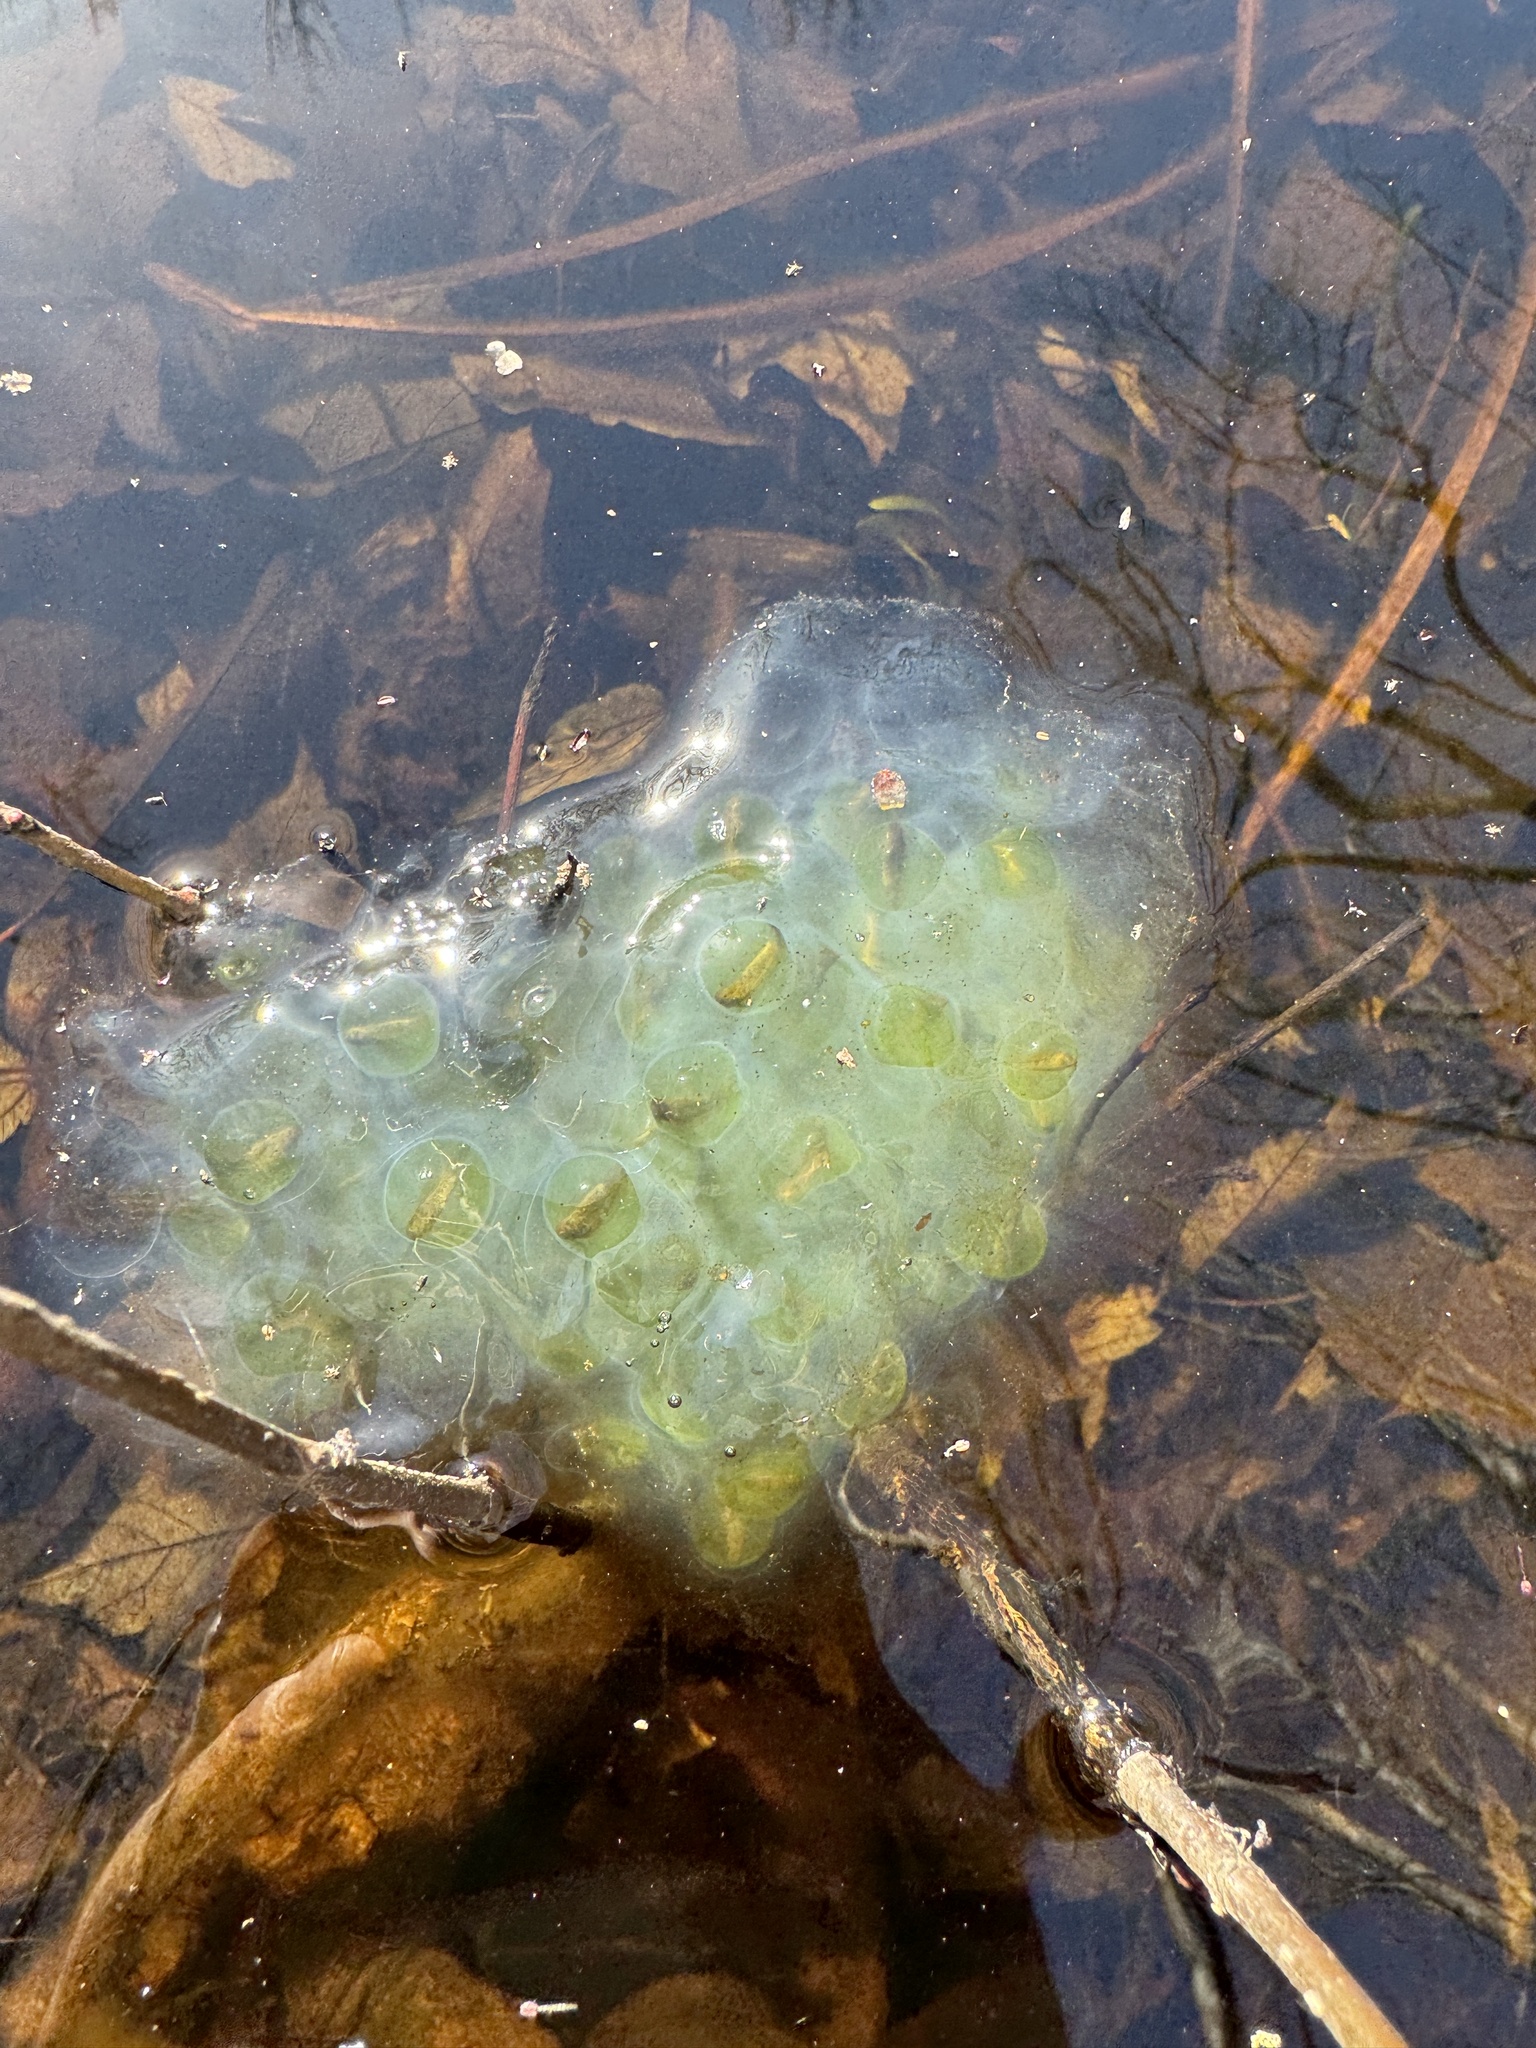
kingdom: Animalia
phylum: Chordata
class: Amphibia
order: Caudata
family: Ambystomatidae
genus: Ambystoma
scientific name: Ambystoma maculatum
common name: Spotted salamander
